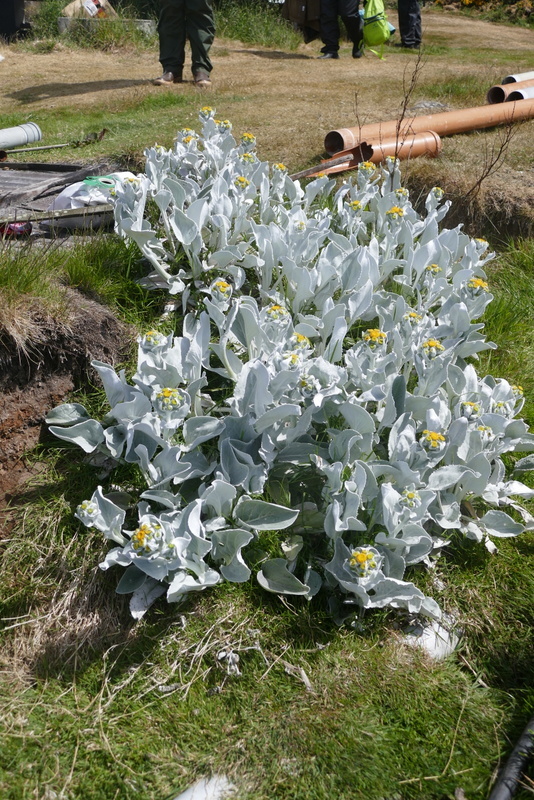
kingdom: Plantae
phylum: Tracheophyta
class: Magnoliopsida
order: Asterales
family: Asteraceae
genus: Senecio
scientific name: Senecio candidans
